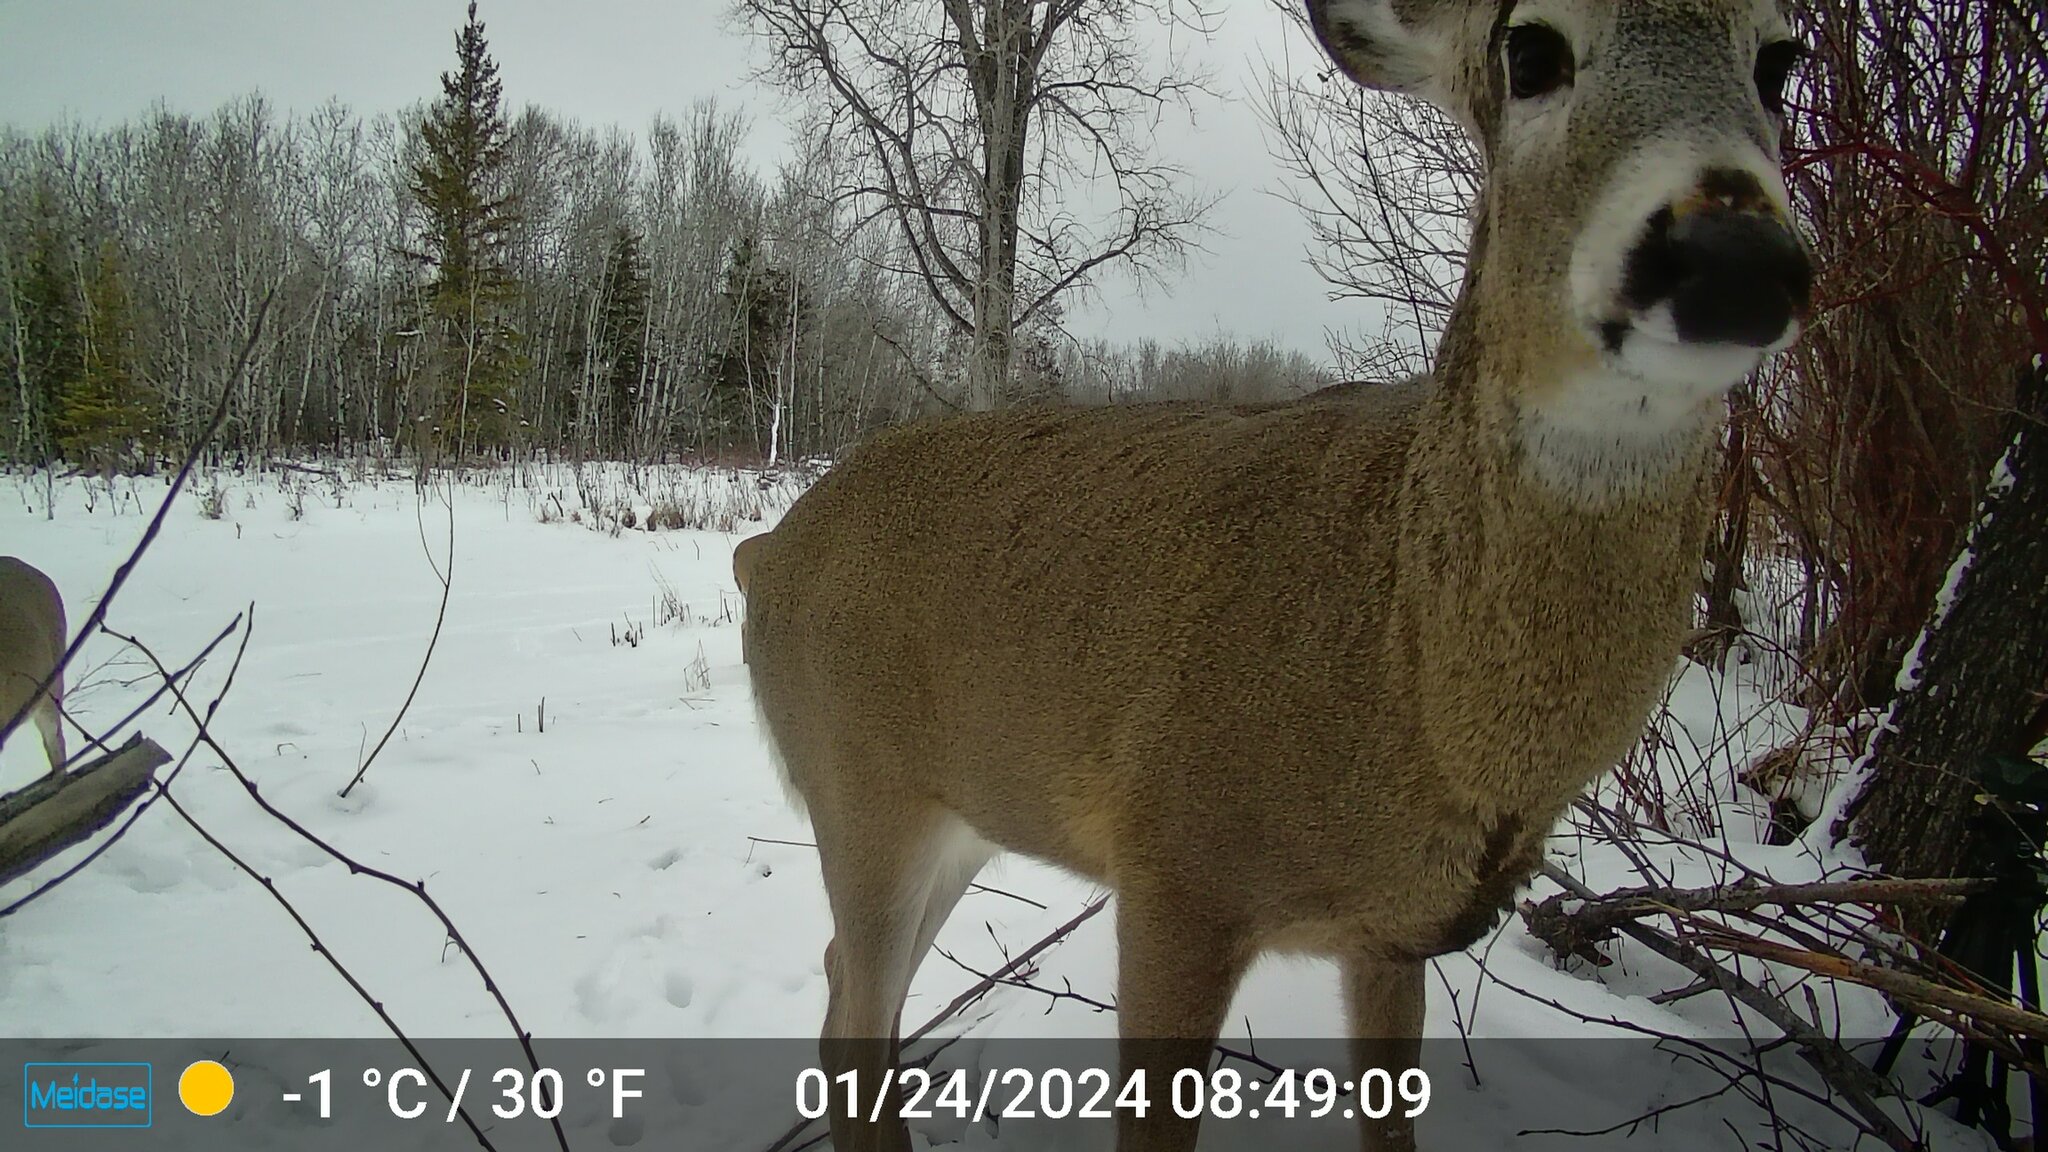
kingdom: Animalia
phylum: Chordata
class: Mammalia
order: Artiodactyla
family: Cervidae
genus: Odocoileus
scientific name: Odocoileus virginianus
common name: White-tailed deer
